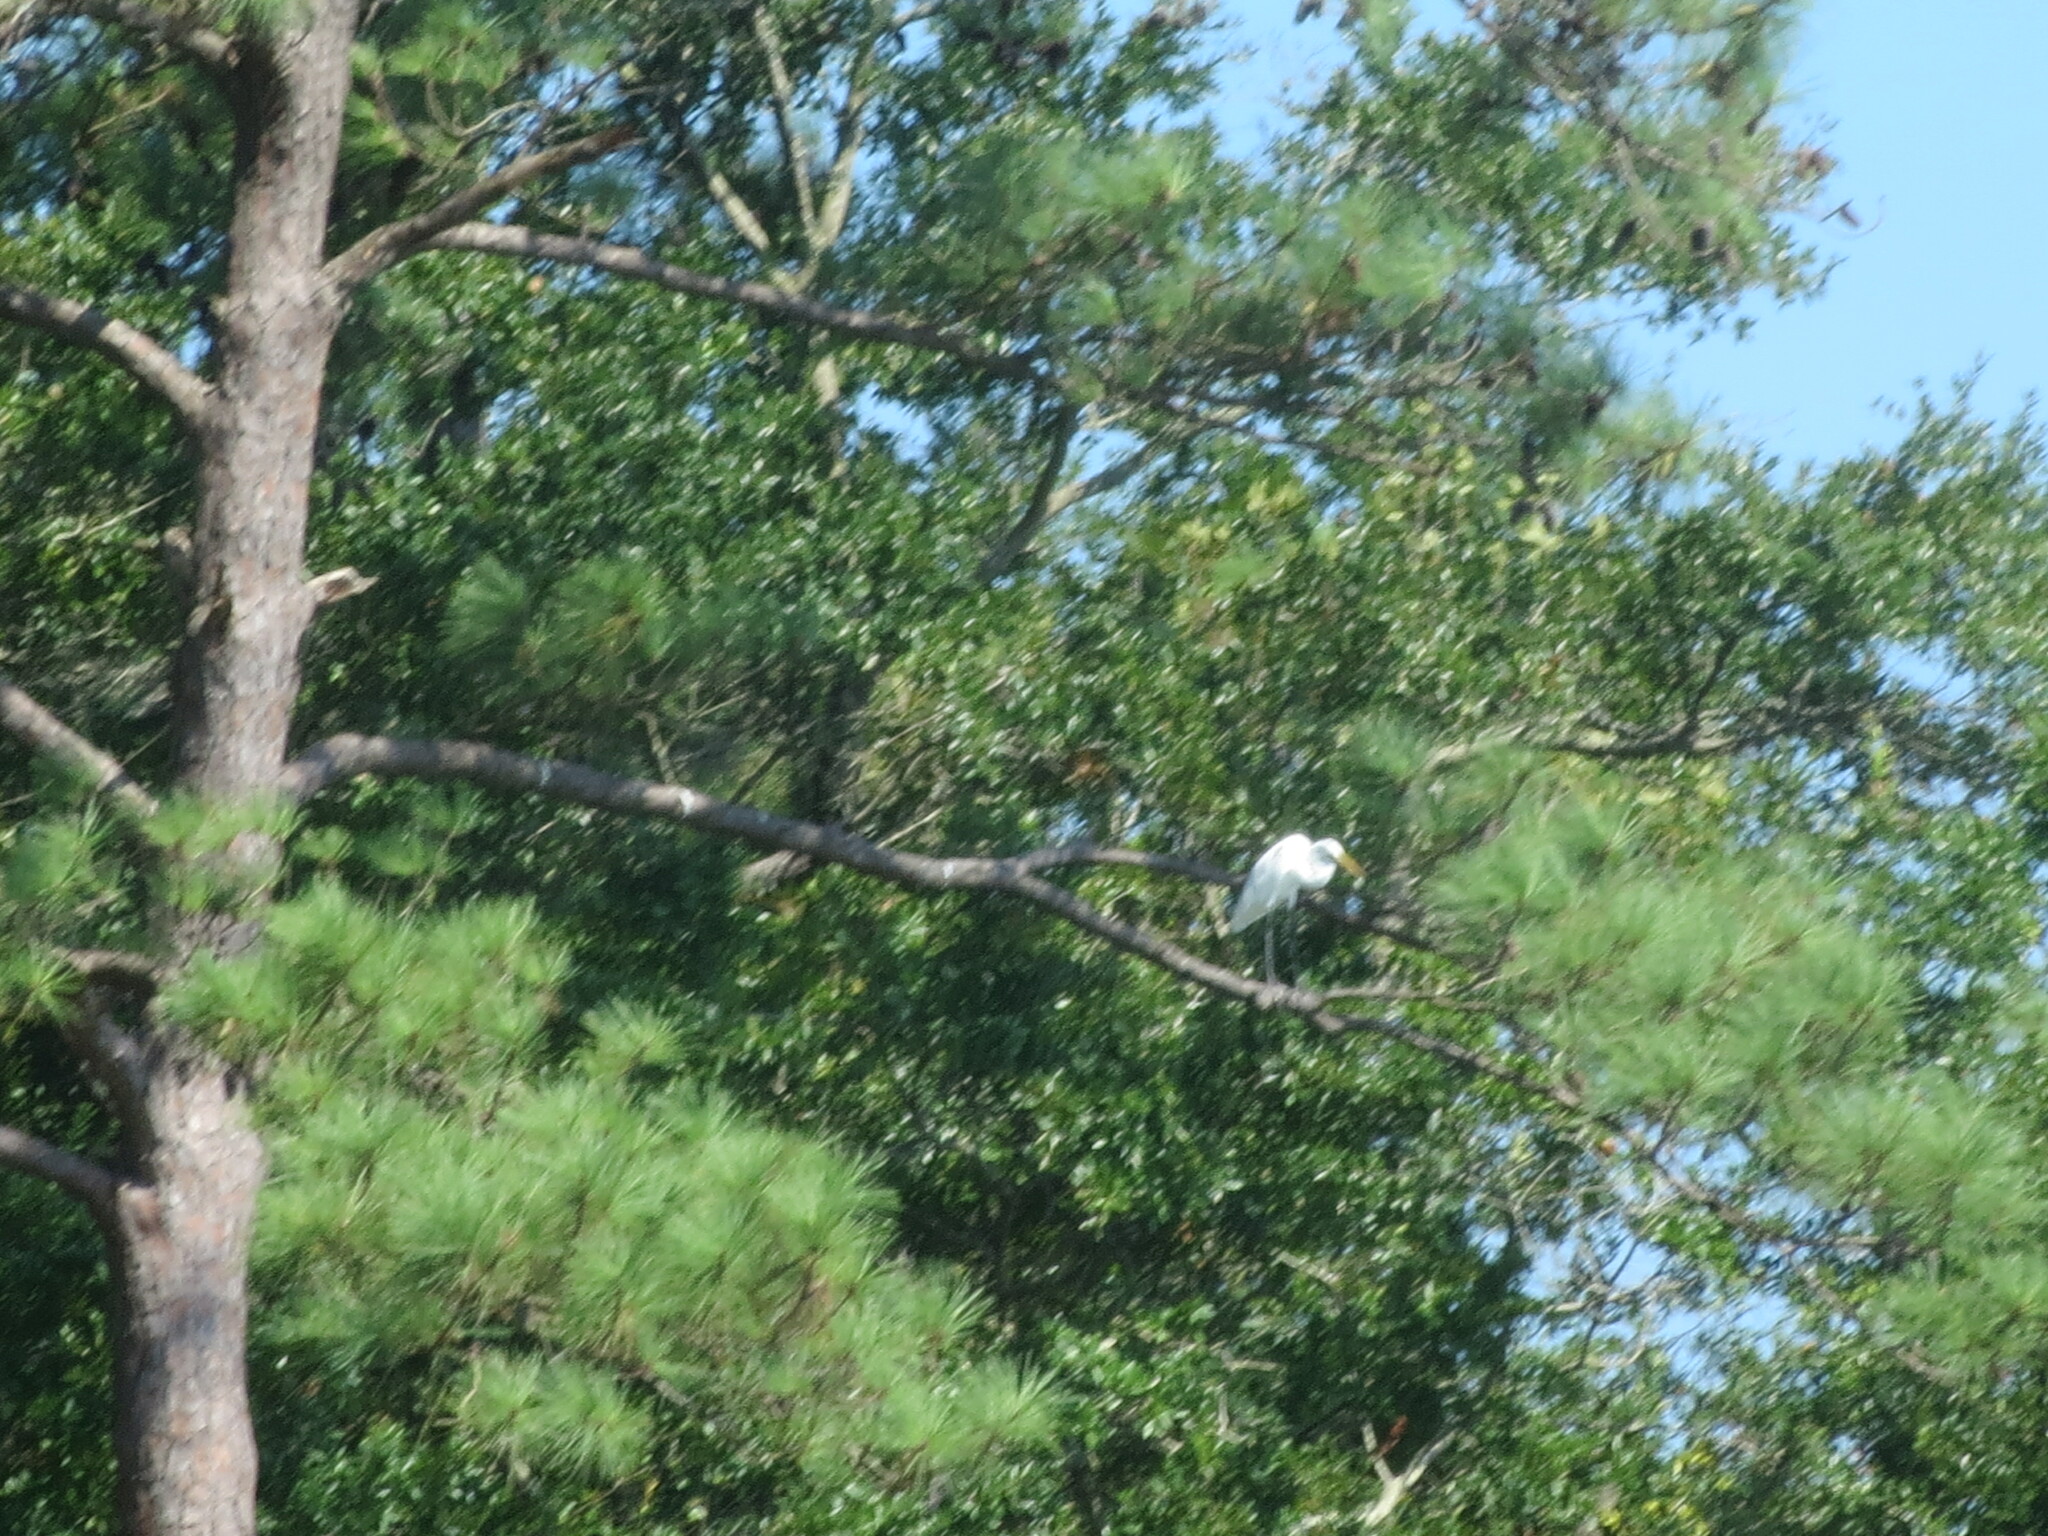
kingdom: Animalia
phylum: Chordata
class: Aves
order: Pelecaniformes
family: Ardeidae
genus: Ardea
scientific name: Ardea alba
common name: Great egret
